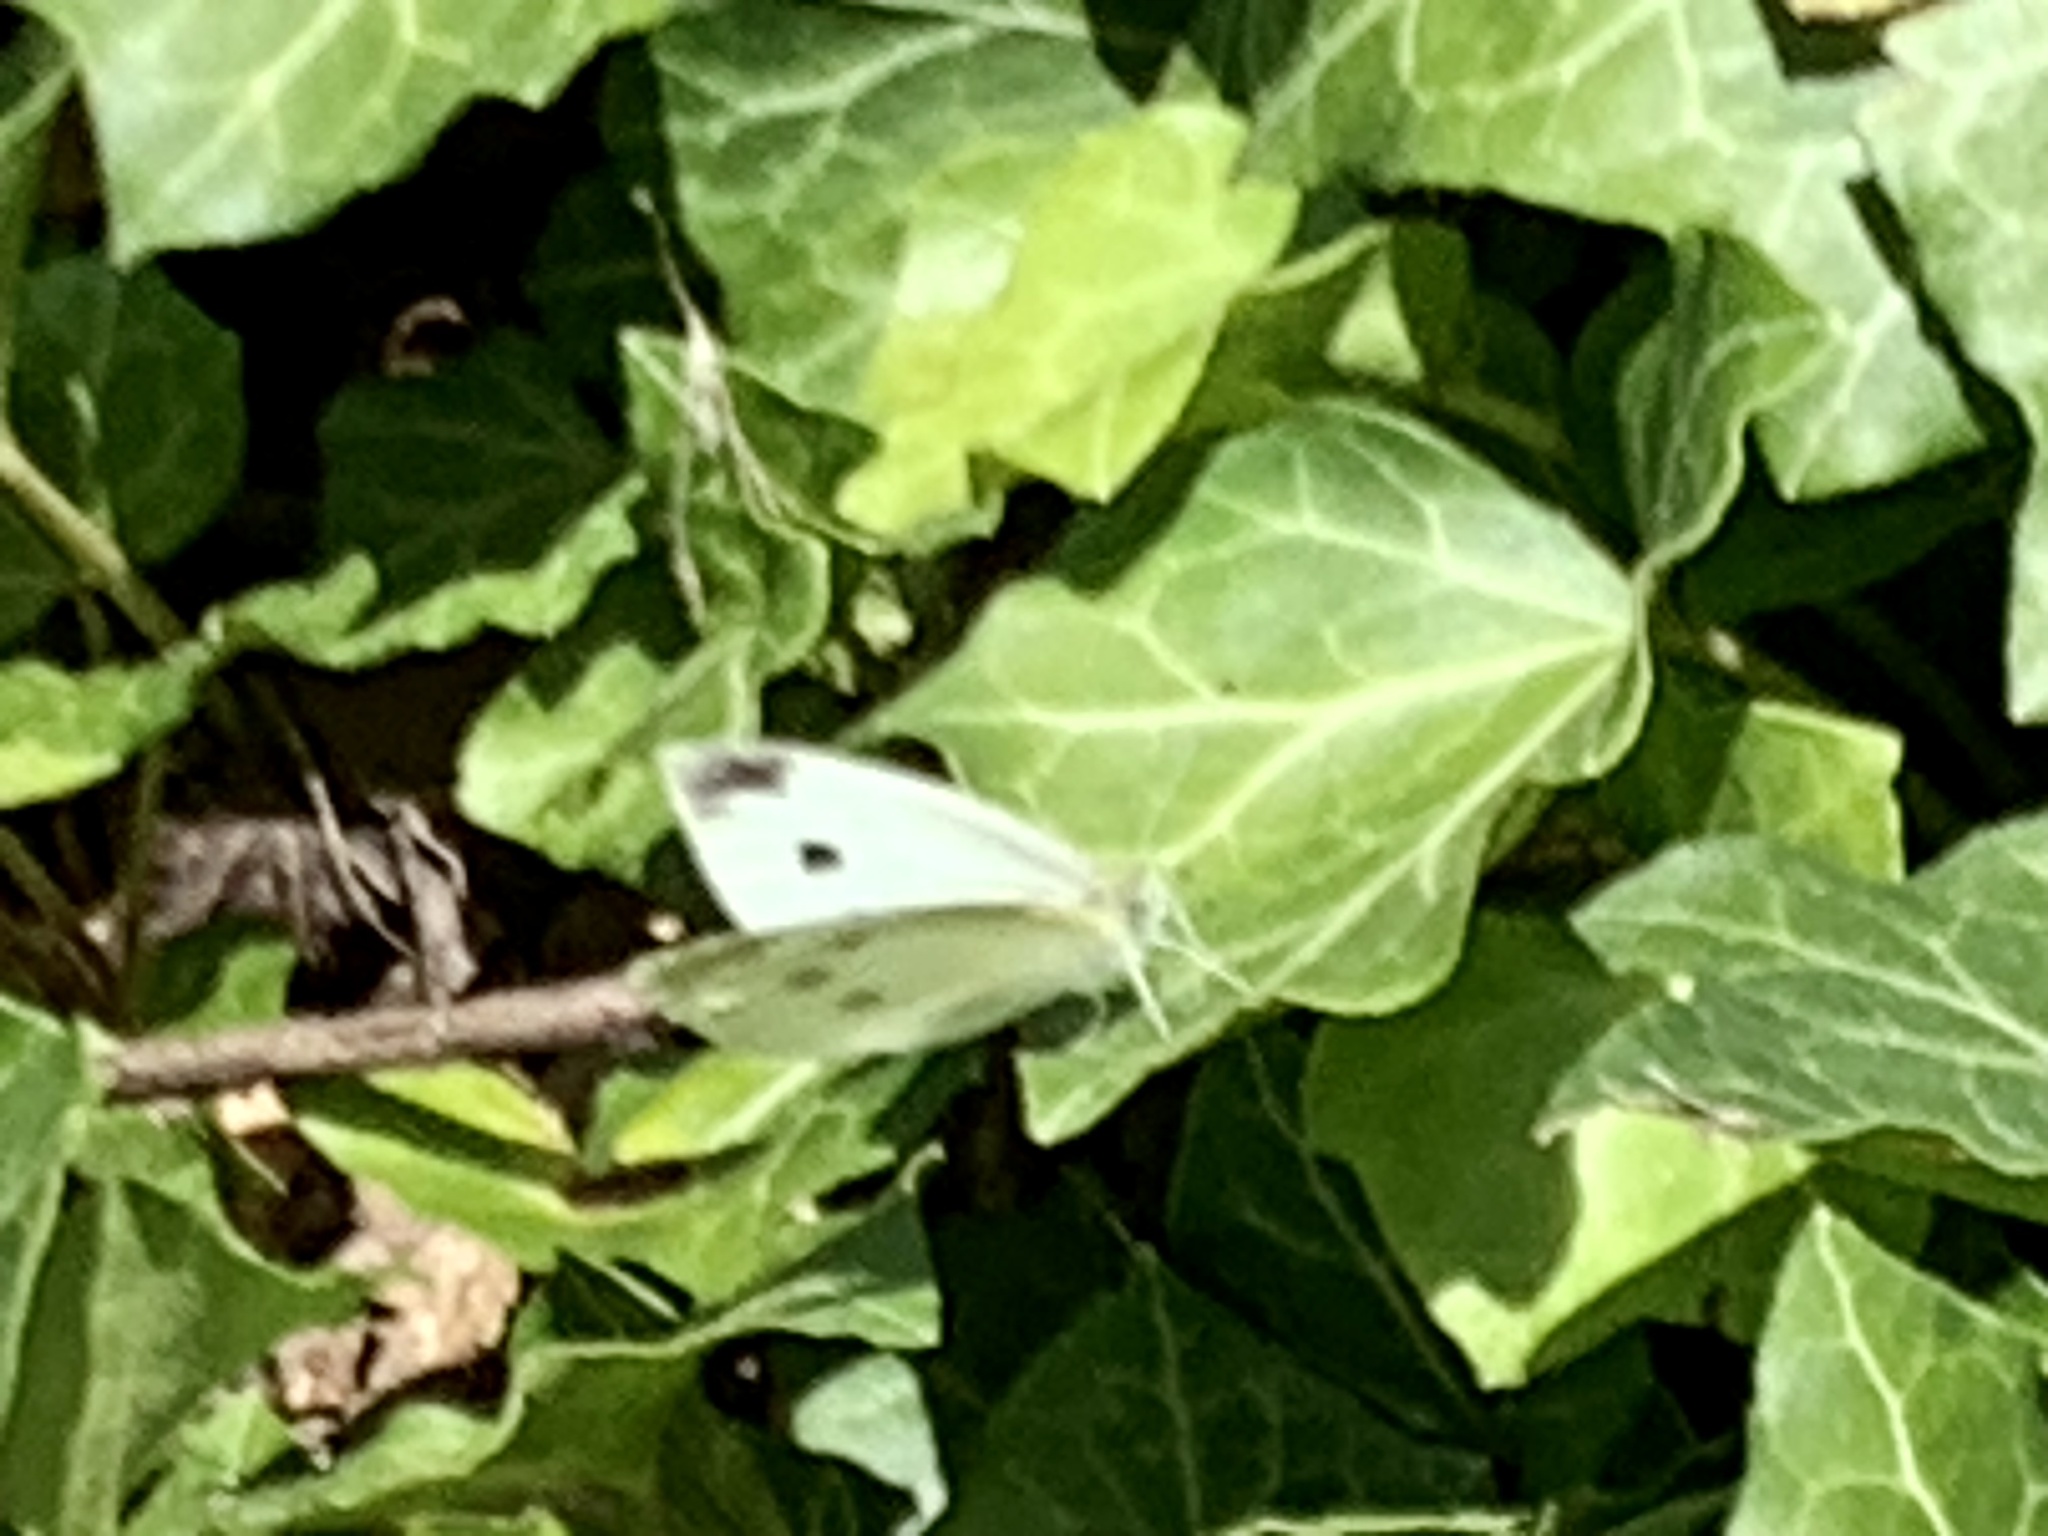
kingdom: Animalia
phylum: Arthropoda
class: Insecta
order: Lepidoptera
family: Pieridae
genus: Pieris
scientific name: Pieris rapae
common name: Small white
